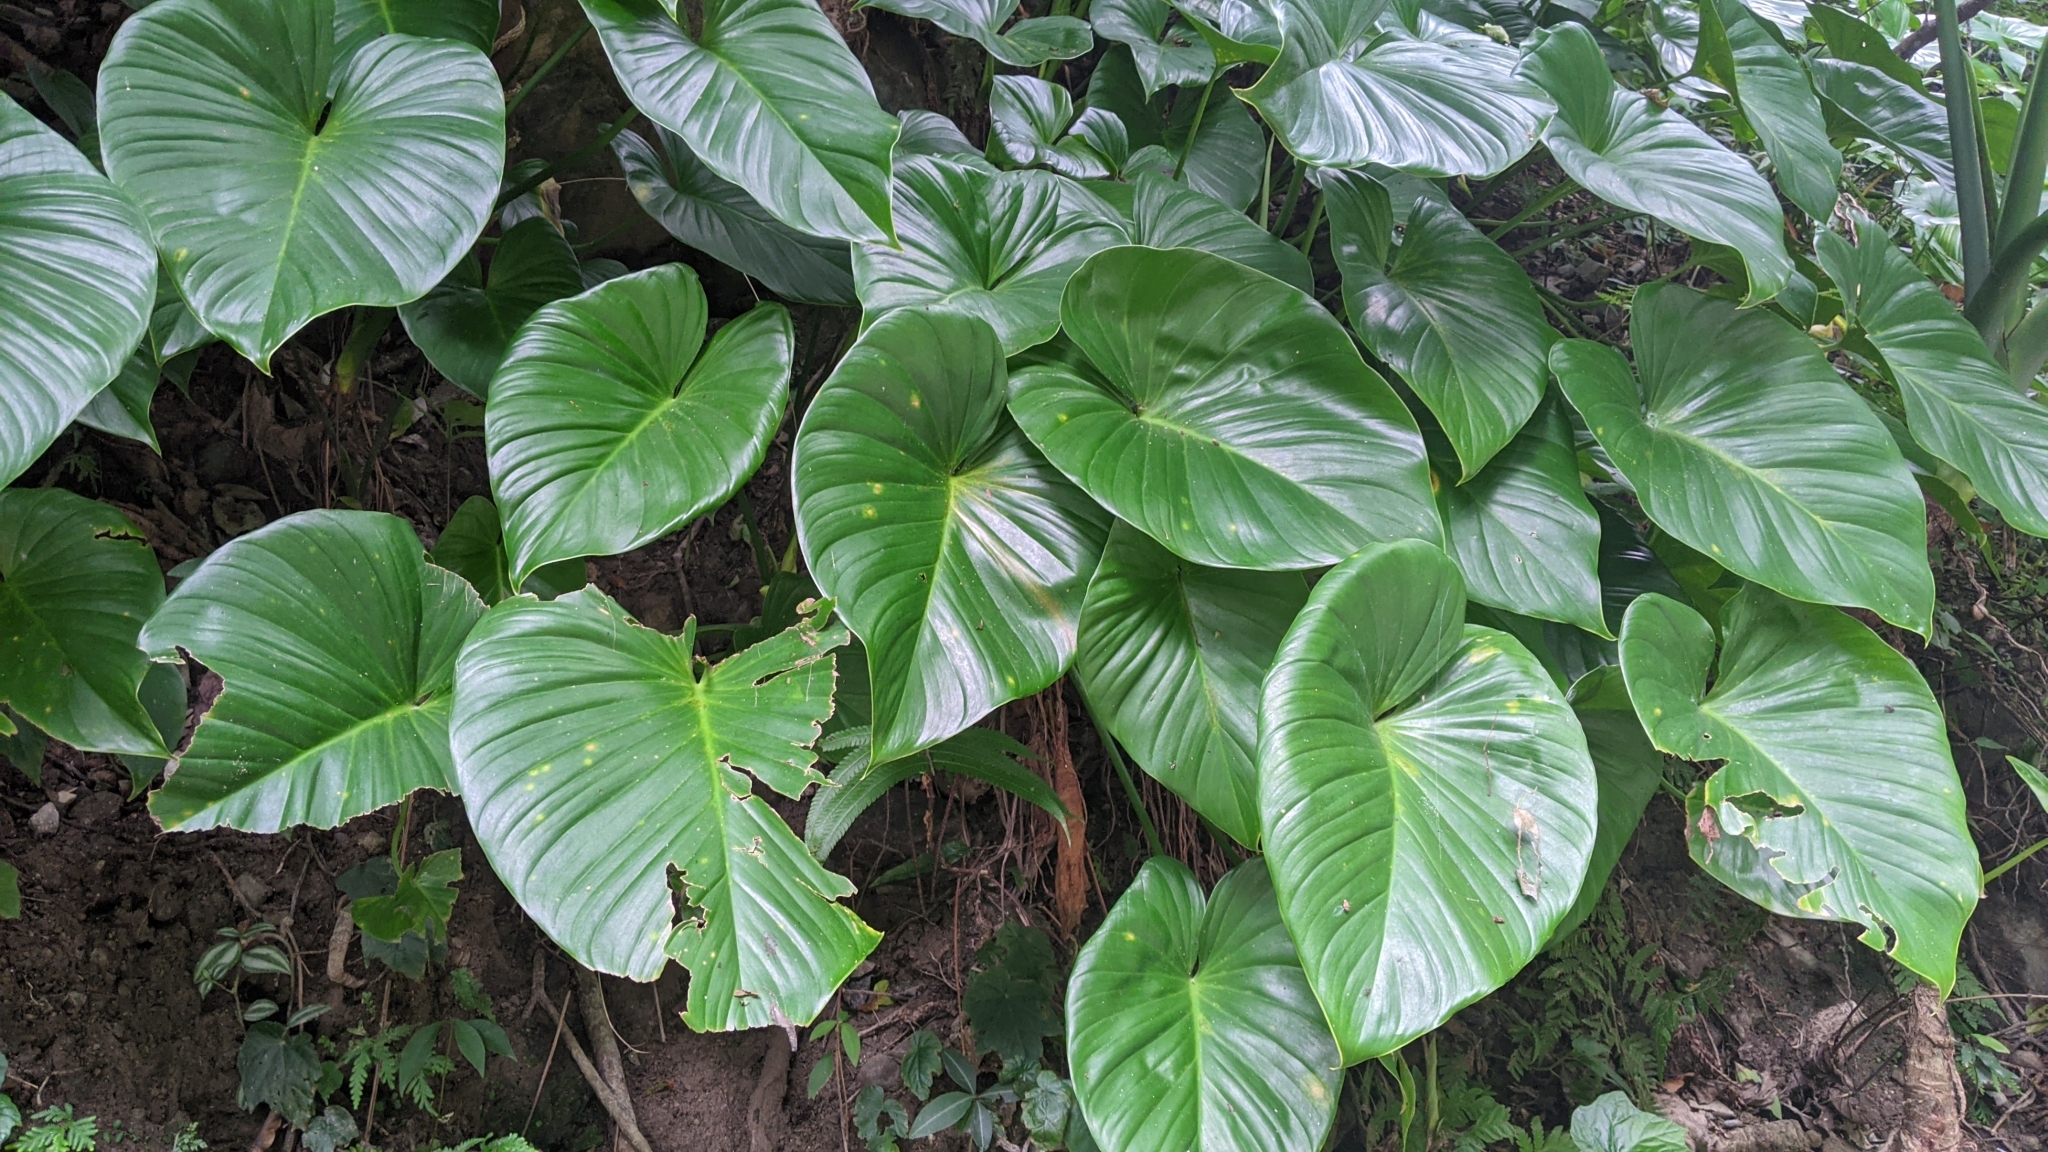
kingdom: Plantae
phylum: Tracheophyta
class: Liliopsida
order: Alismatales
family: Araceae
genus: Homalomena
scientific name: Homalomena philippinensis
